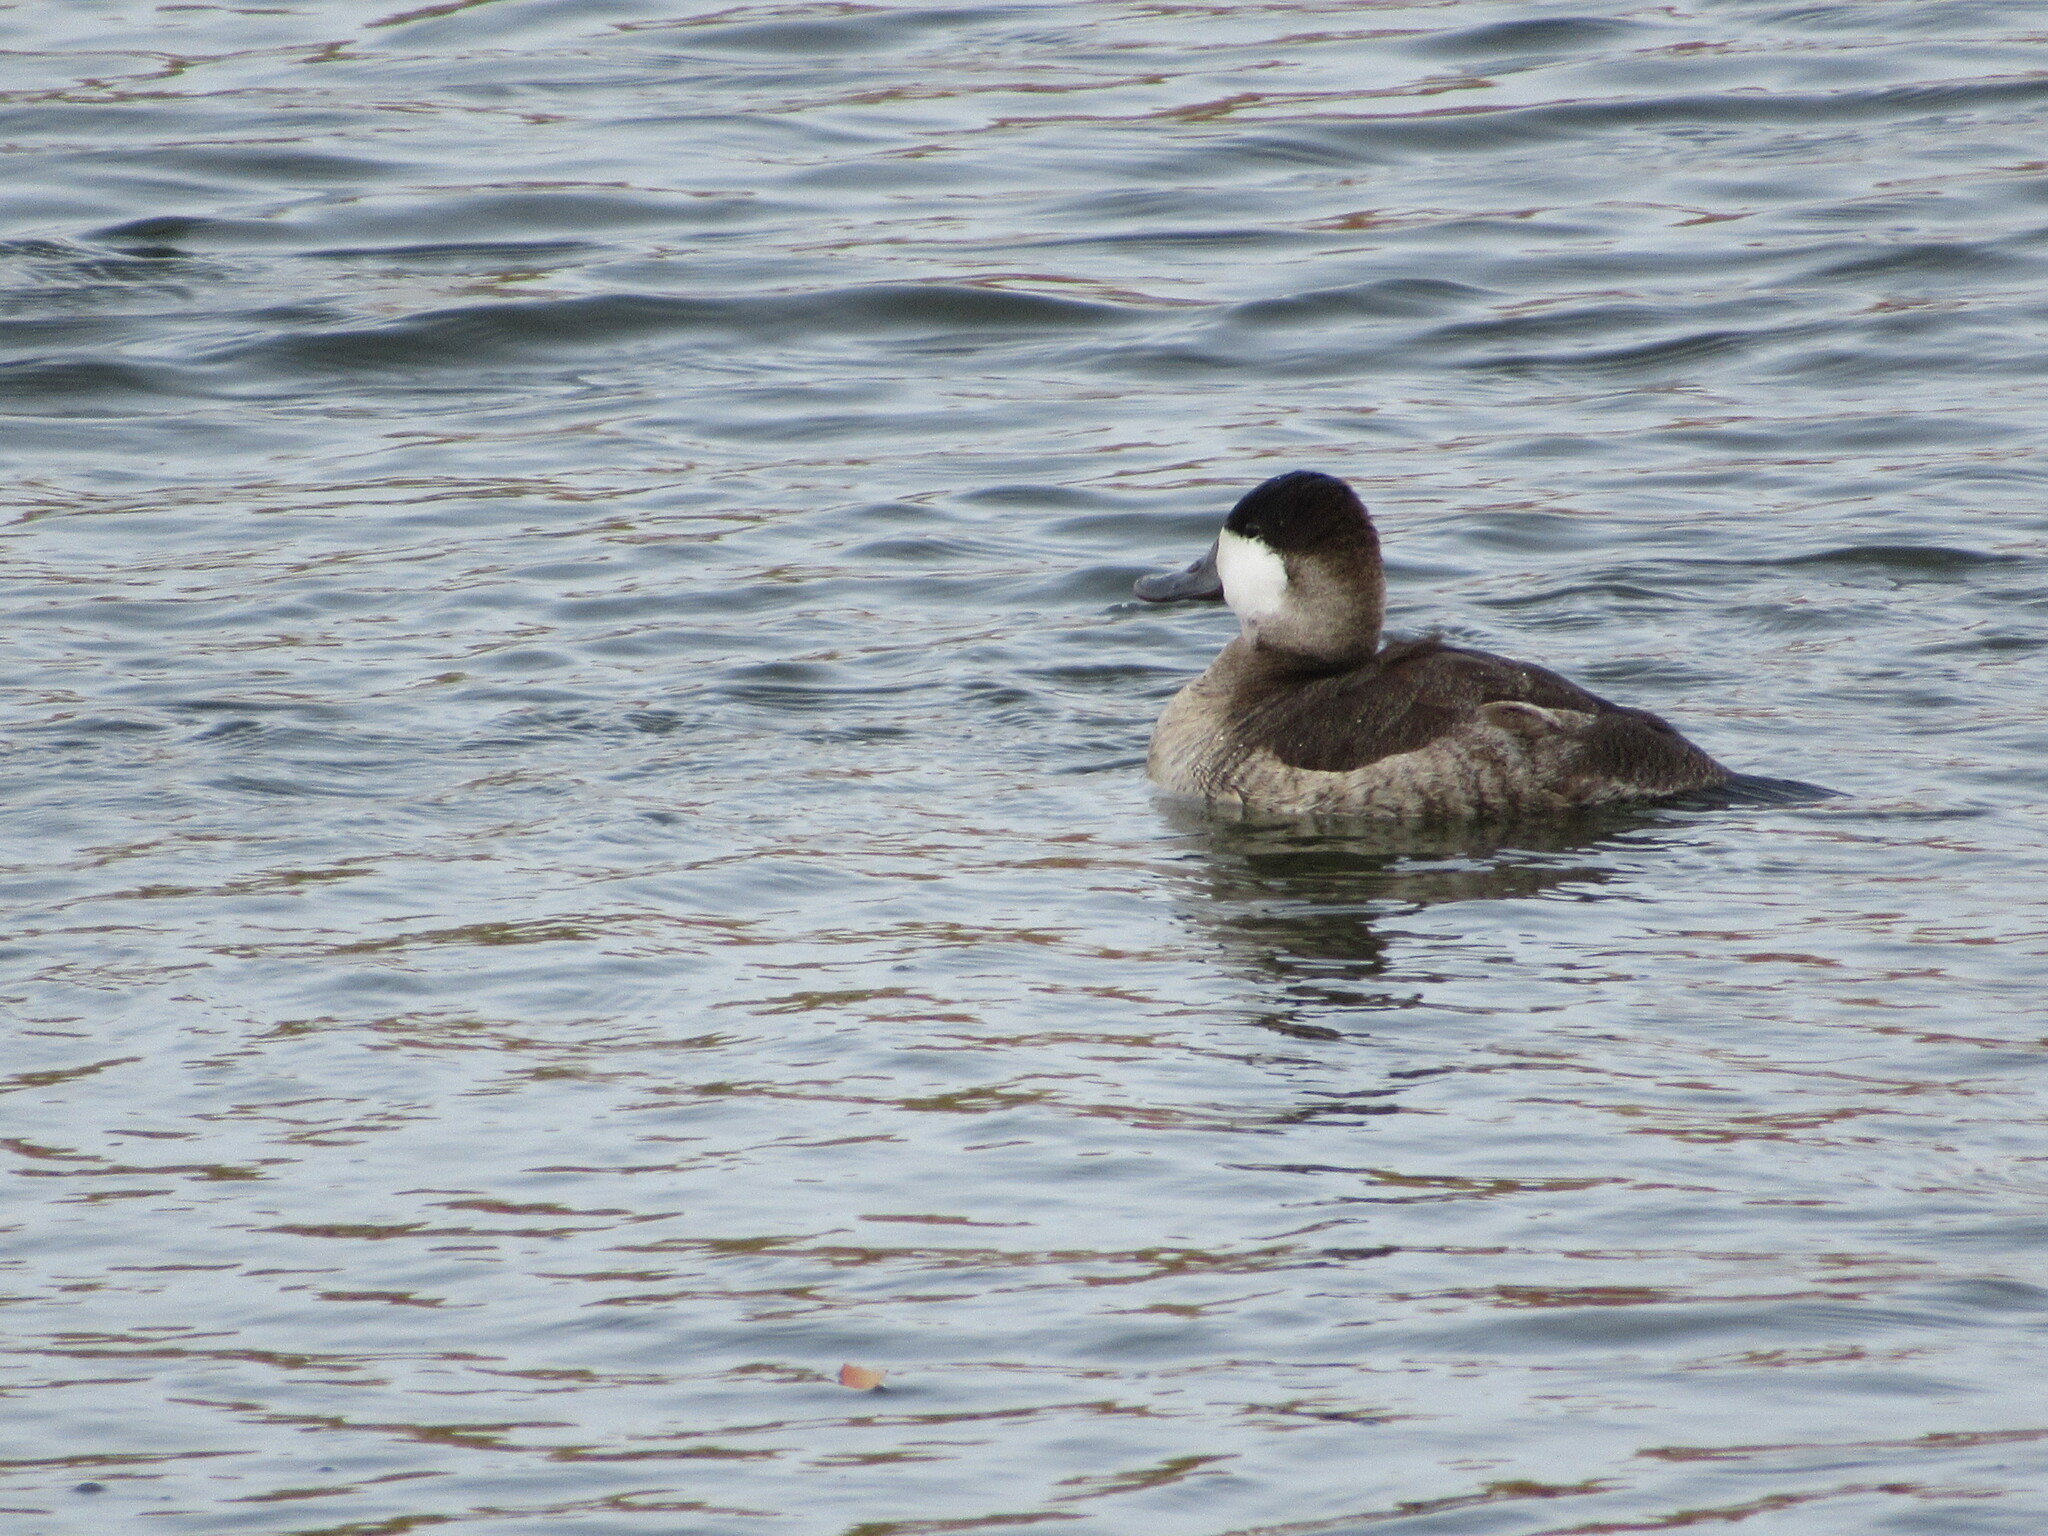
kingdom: Animalia
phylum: Chordata
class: Aves
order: Anseriformes
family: Anatidae
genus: Oxyura
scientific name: Oxyura jamaicensis
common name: Ruddy duck
